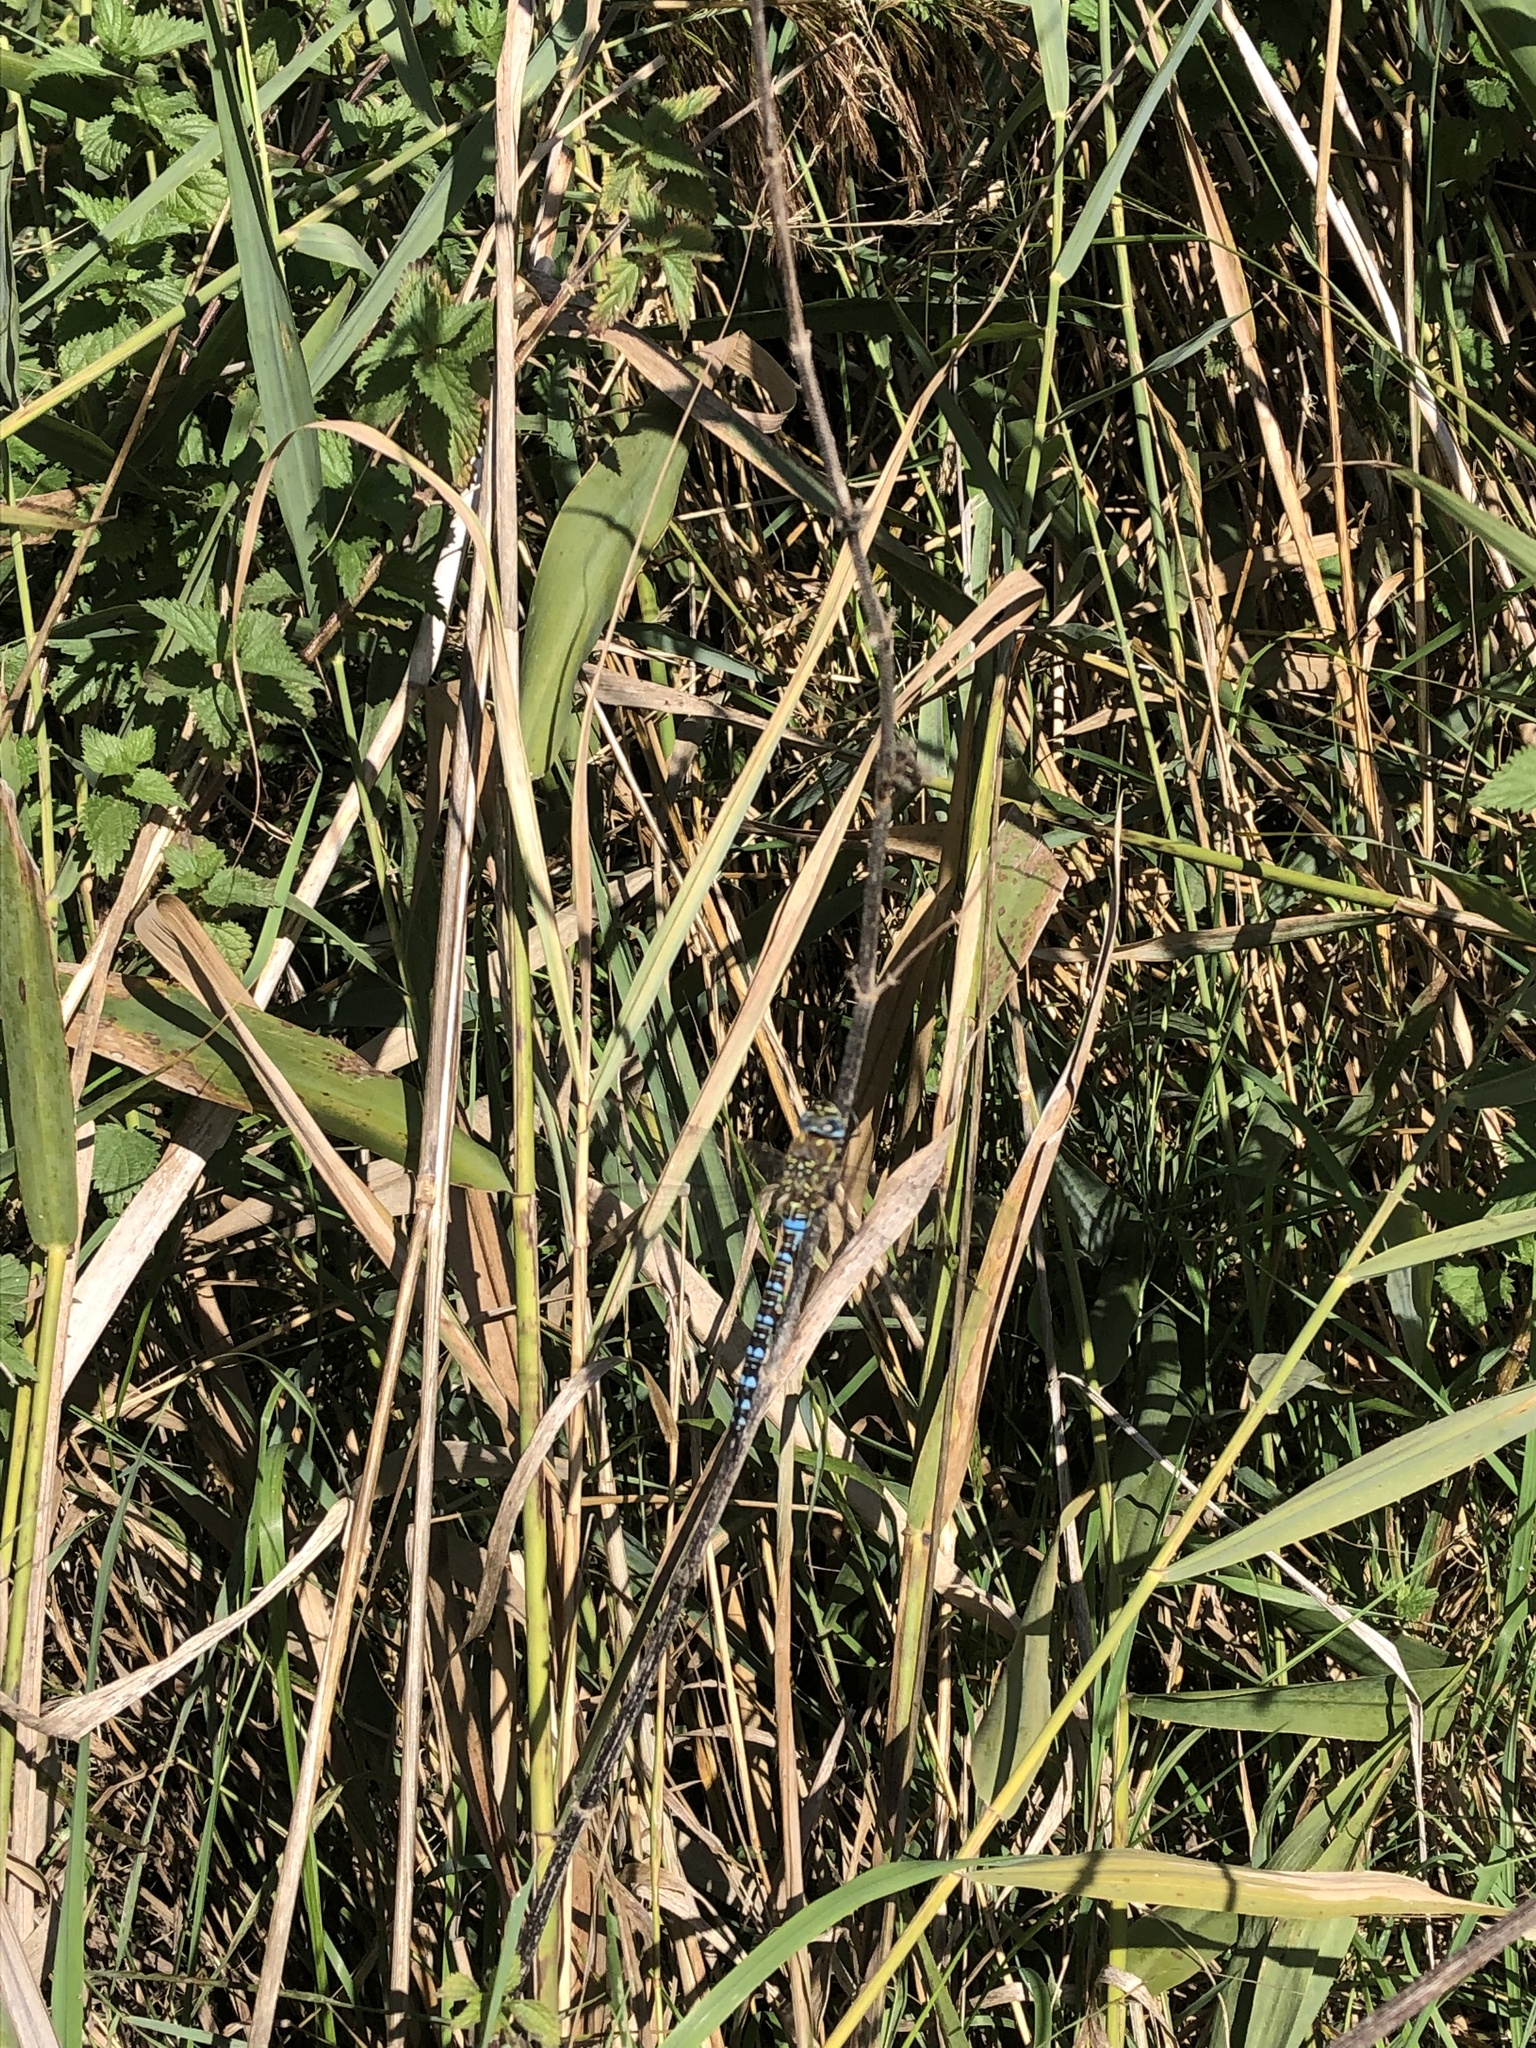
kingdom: Animalia
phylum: Arthropoda
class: Insecta
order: Odonata
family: Aeshnidae
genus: Aeshna
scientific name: Aeshna mixta
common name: Migrant hawker
